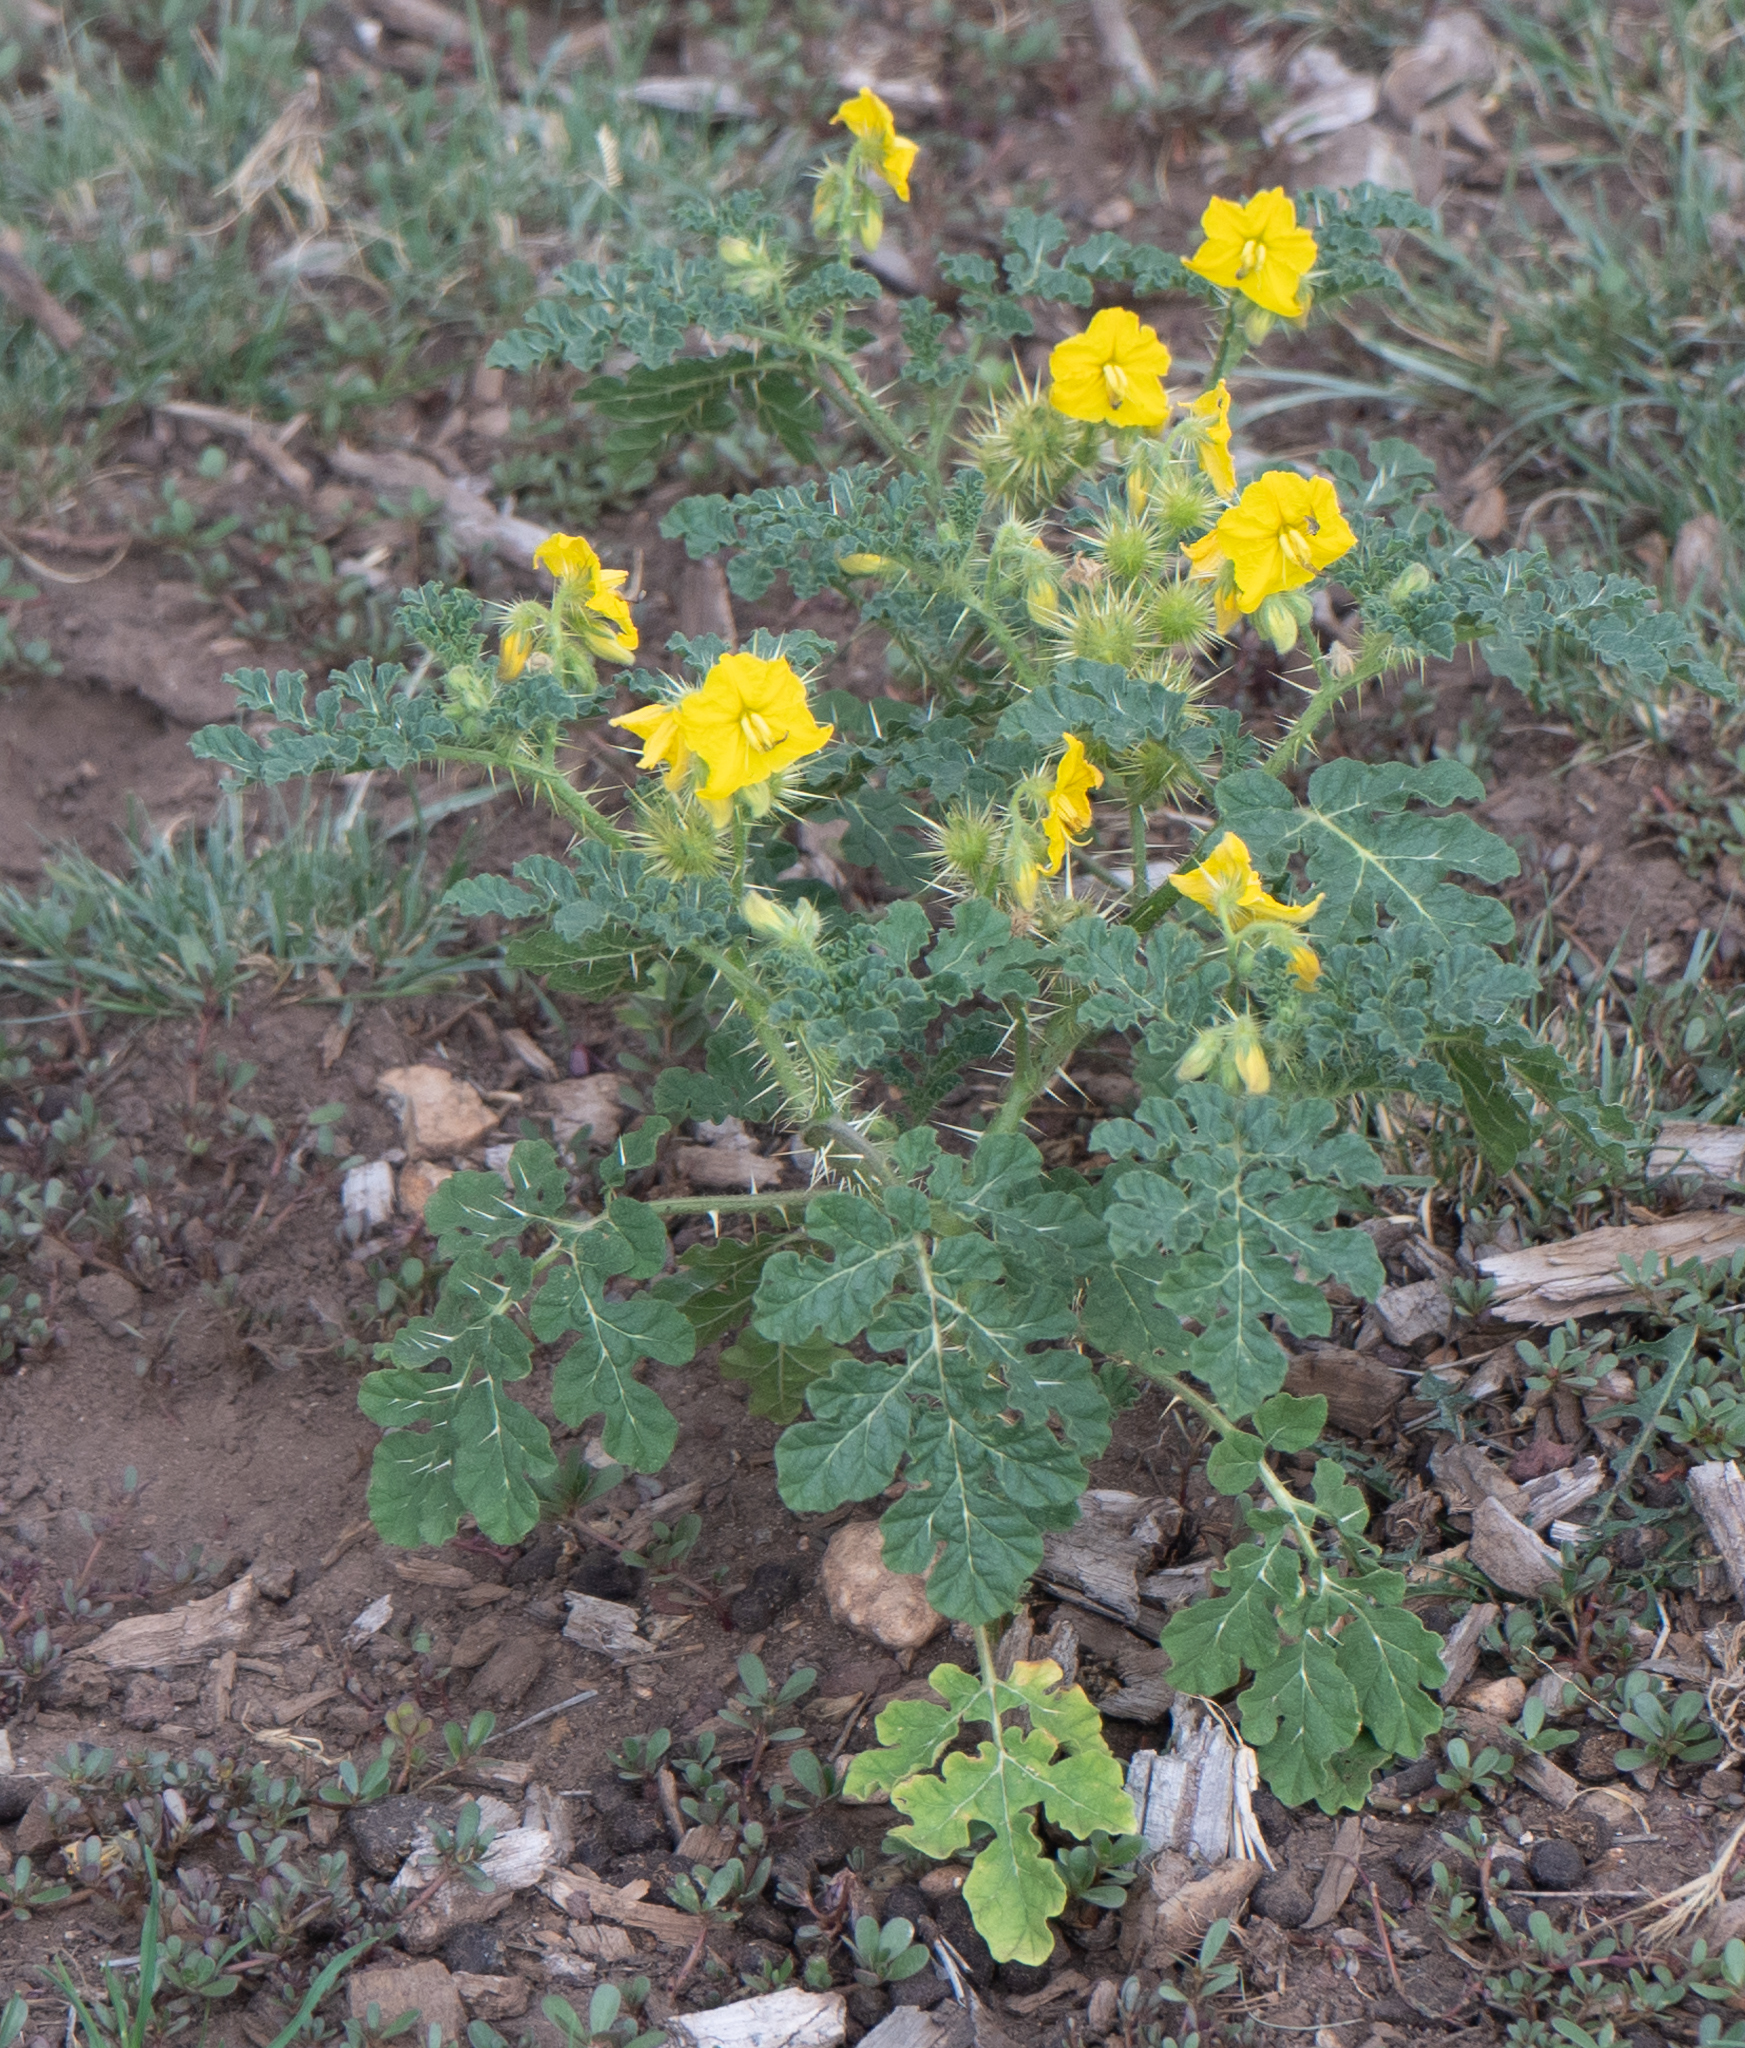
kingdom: Plantae
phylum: Tracheophyta
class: Magnoliopsida
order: Solanales
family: Solanaceae
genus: Solanum
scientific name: Solanum angustifolium
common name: Buffalobur nightshade
